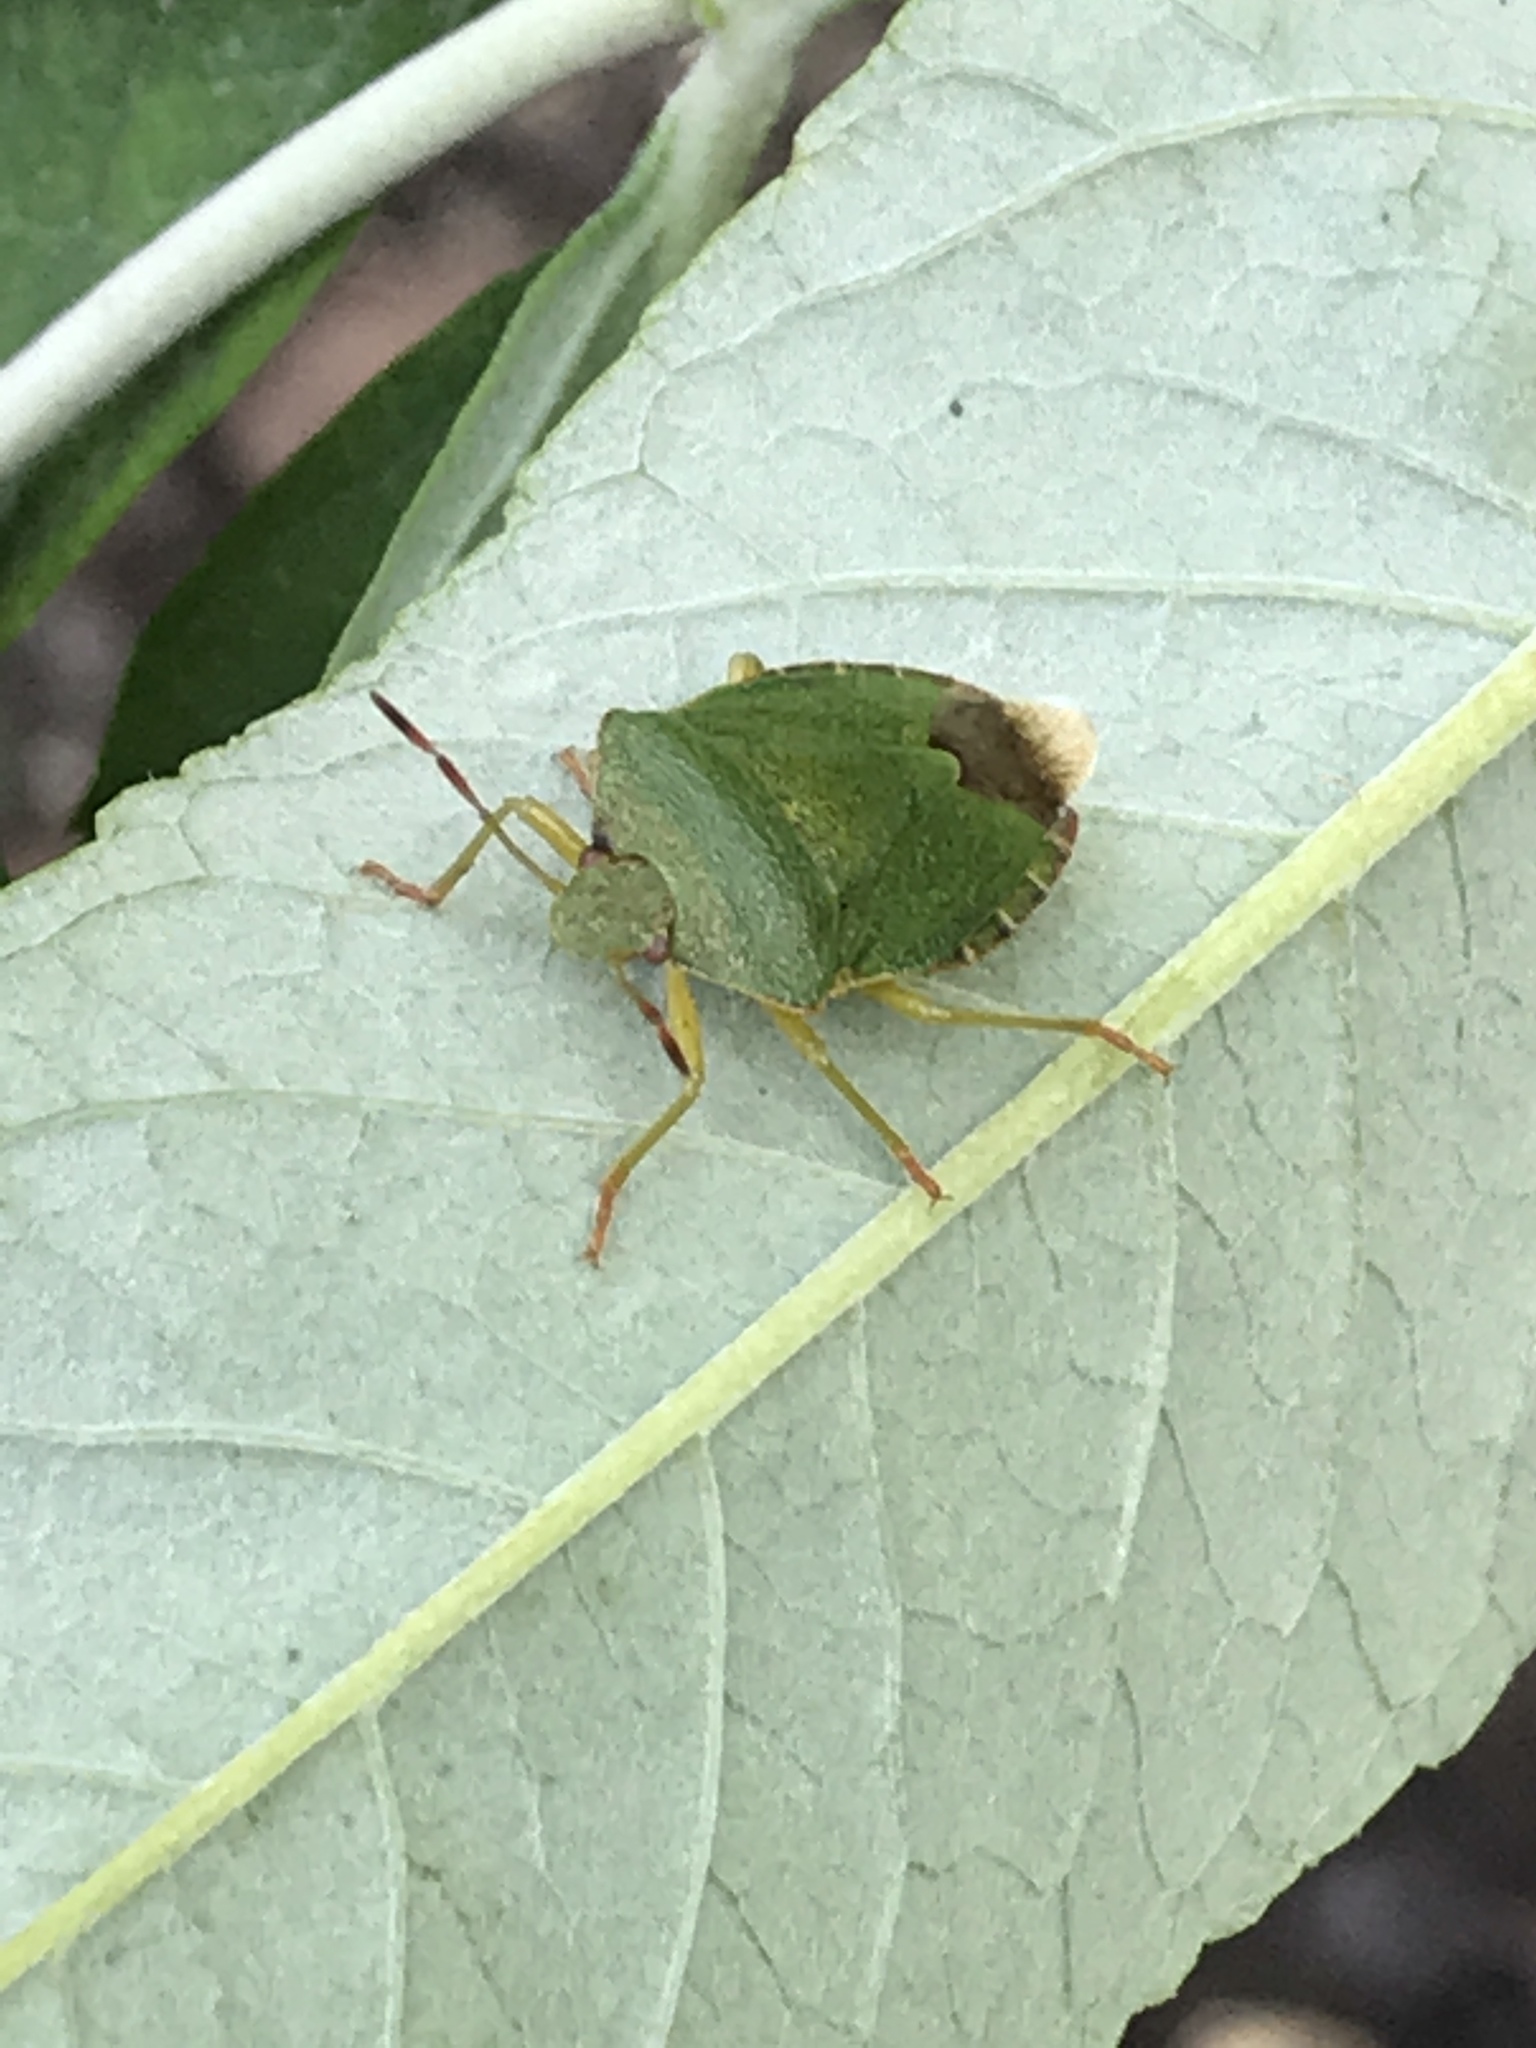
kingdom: Animalia
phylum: Arthropoda
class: Insecta
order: Hemiptera
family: Pentatomidae
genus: Palomena
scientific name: Palomena prasina
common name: Green shieldbug
